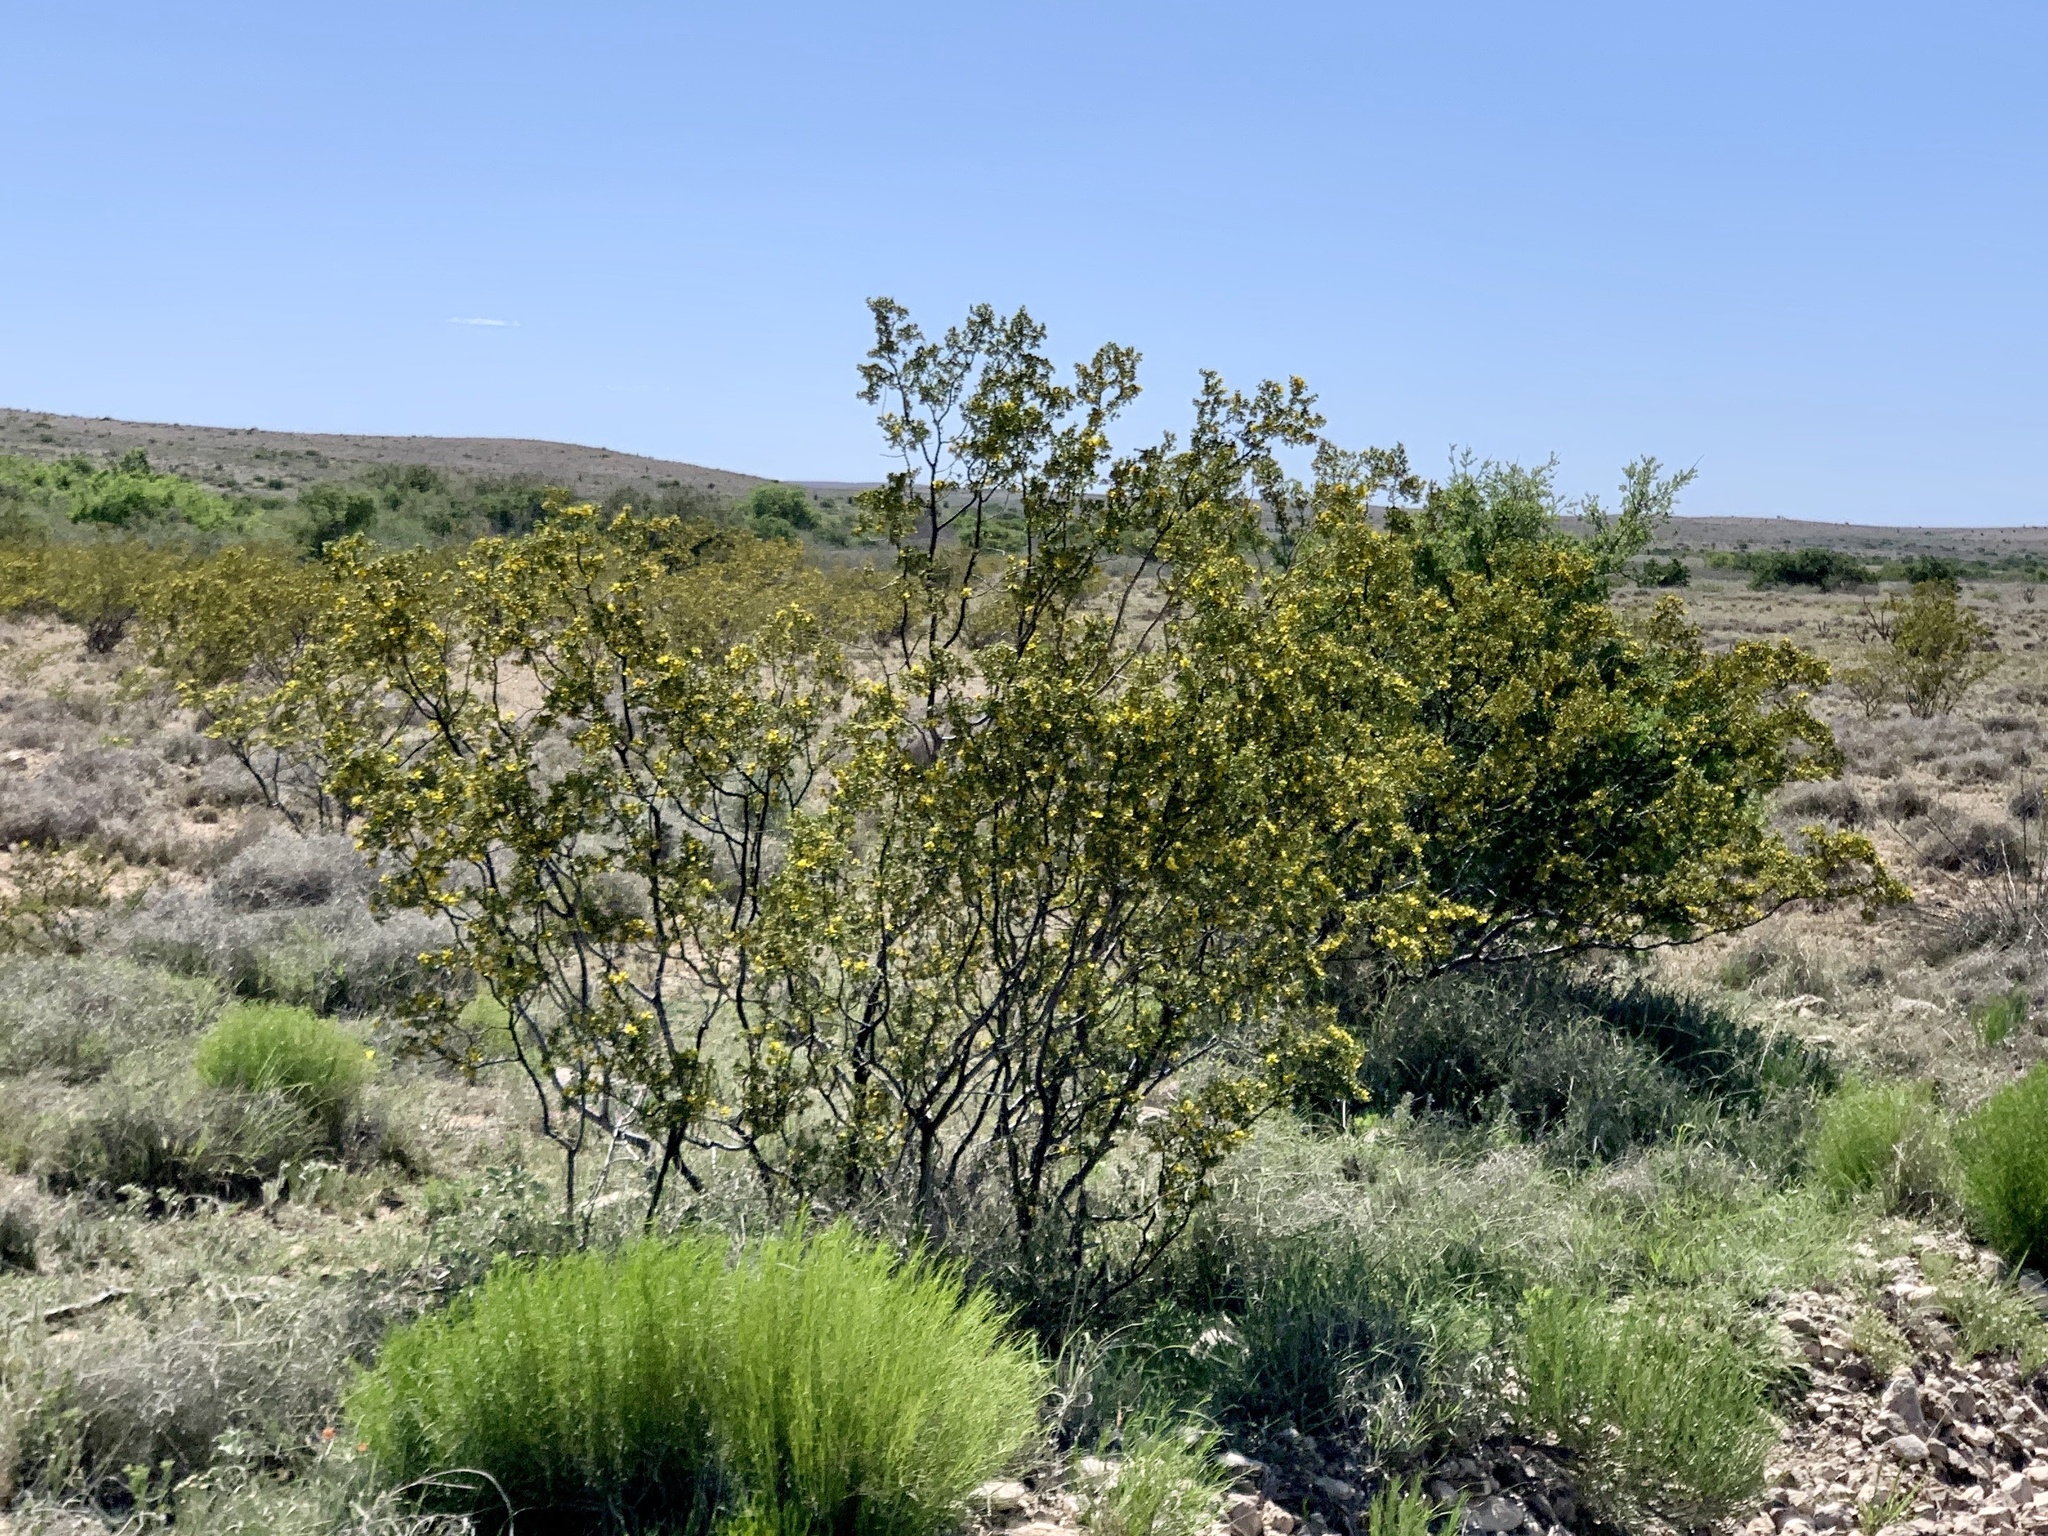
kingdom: Plantae
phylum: Tracheophyta
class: Magnoliopsida
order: Zygophyllales
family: Zygophyllaceae
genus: Larrea
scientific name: Larrea tridentata
